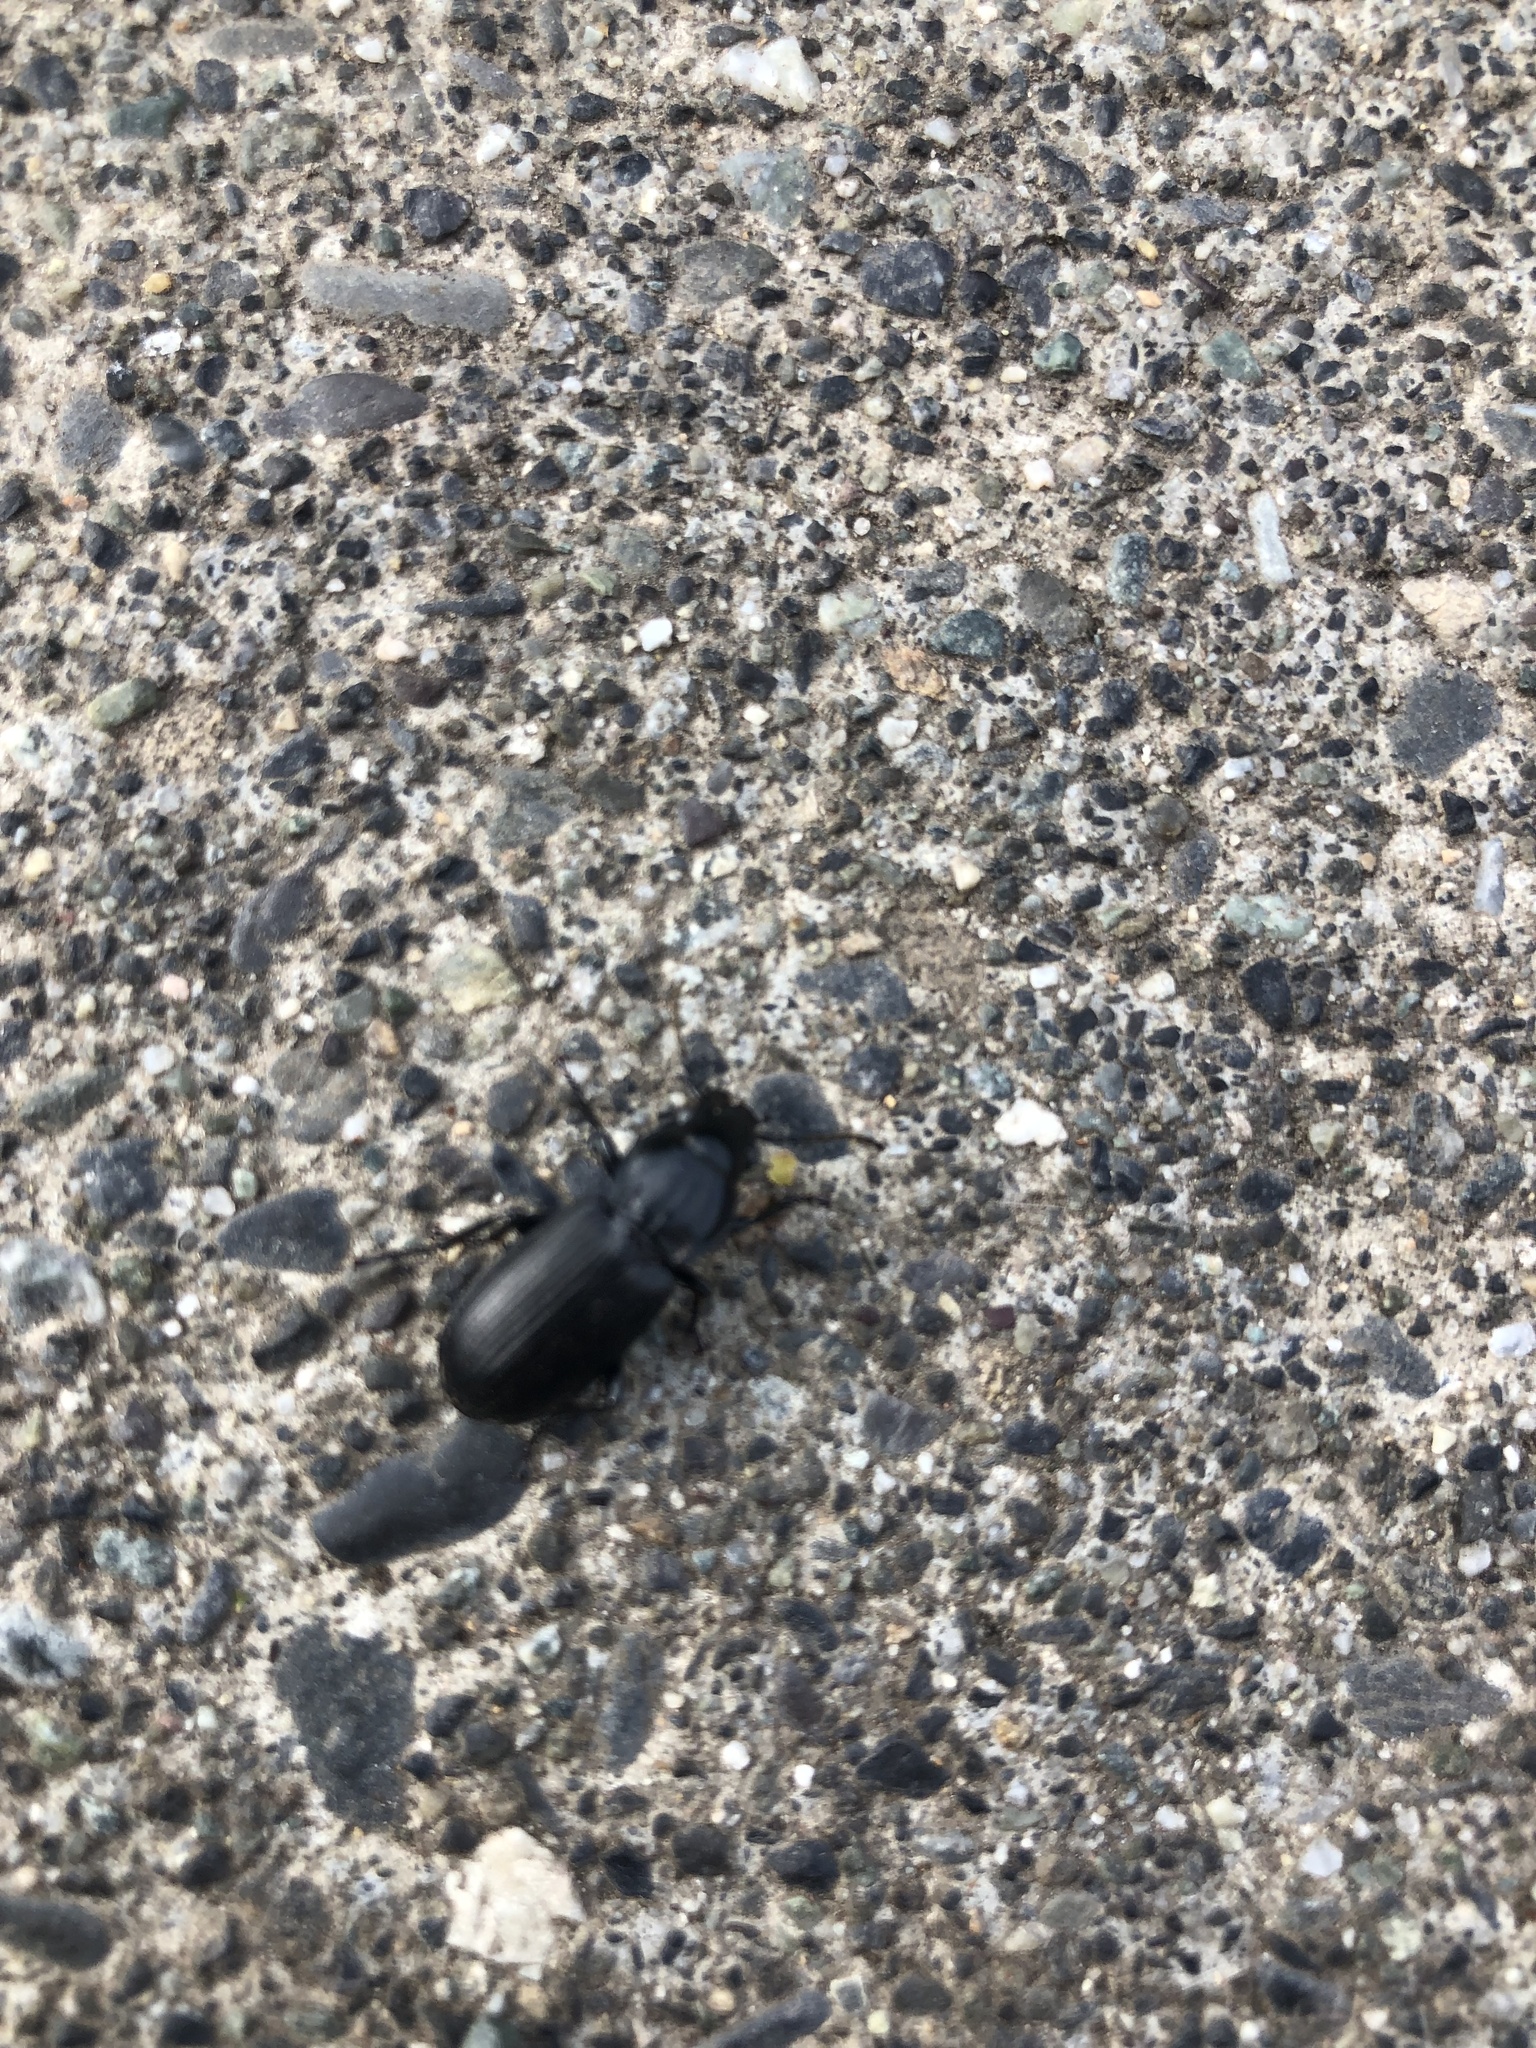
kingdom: Animalia
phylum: Arthropoda
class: Insecta
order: Coleoptera
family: Carabidae
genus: Pterostichus
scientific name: Pterostichus melanarius
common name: European dark harp ground beetle
